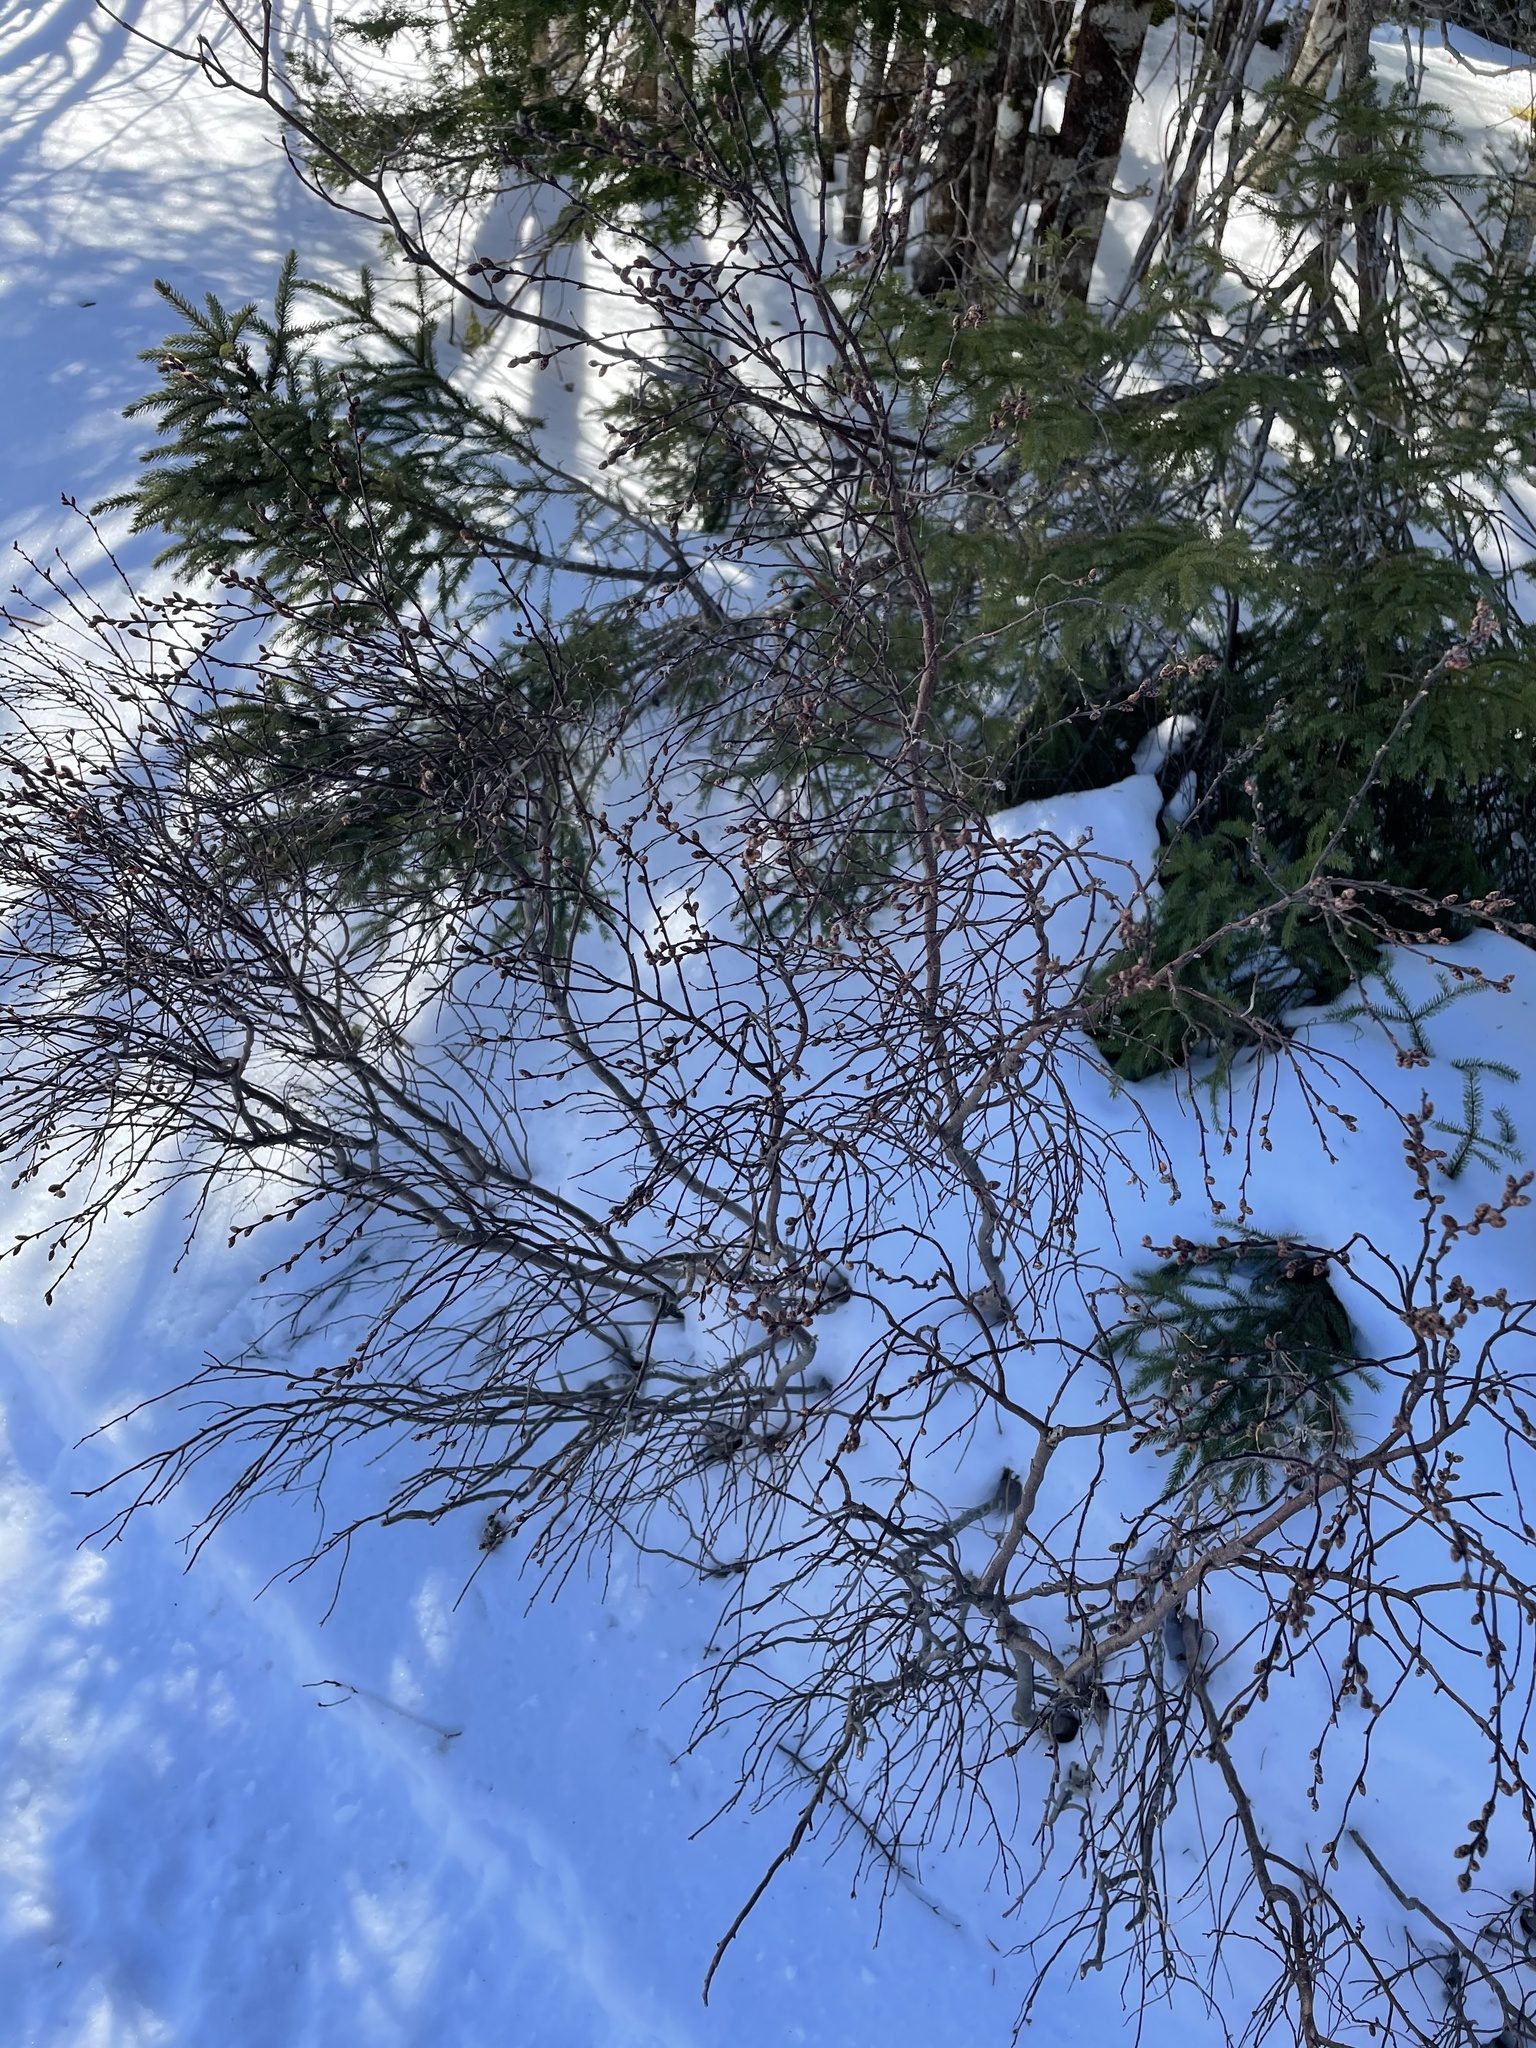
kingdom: Plantae
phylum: Tracheophyta
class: Magnoliopsida
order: Fagales
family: Myricaceae
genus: Myrica
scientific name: Myrica gale
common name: Sweet gale
